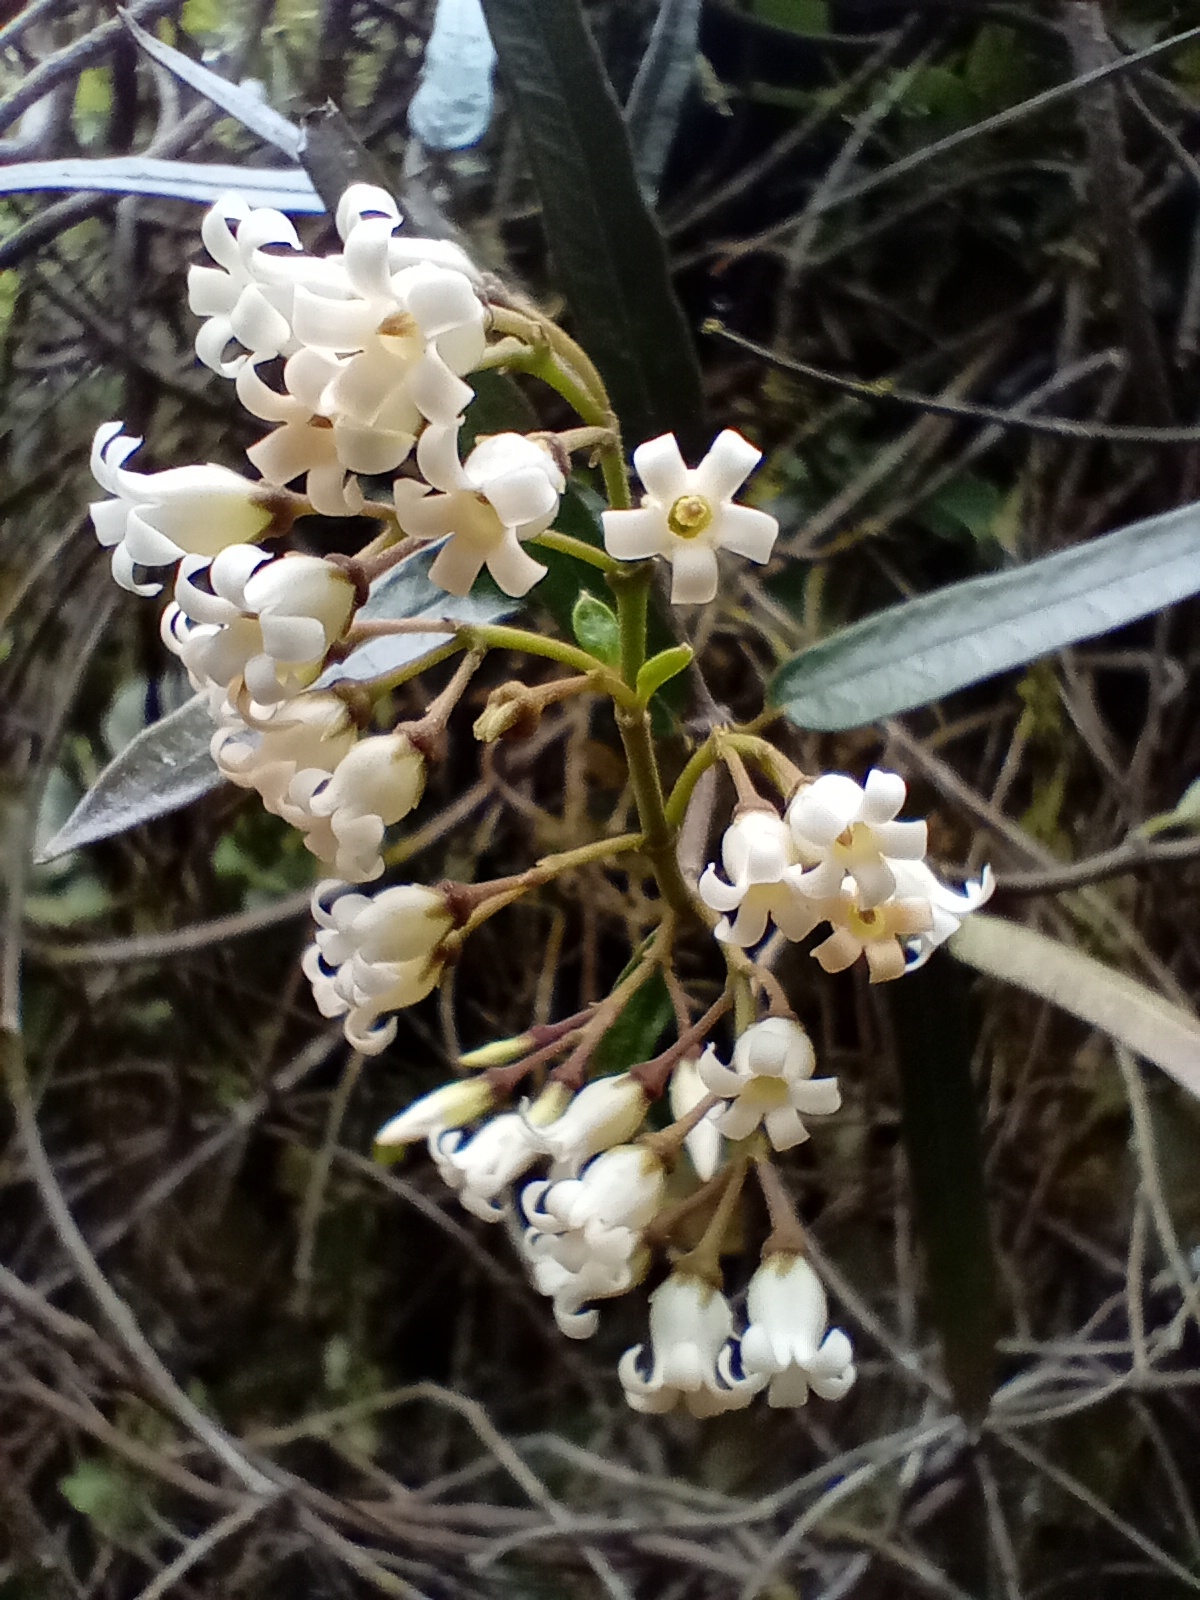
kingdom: Plantae
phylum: Tracheophyta
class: Magnoliopsida
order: Gentianales
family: Apocynaceae
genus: Parsonsia
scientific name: Parsonsia heterophylla
